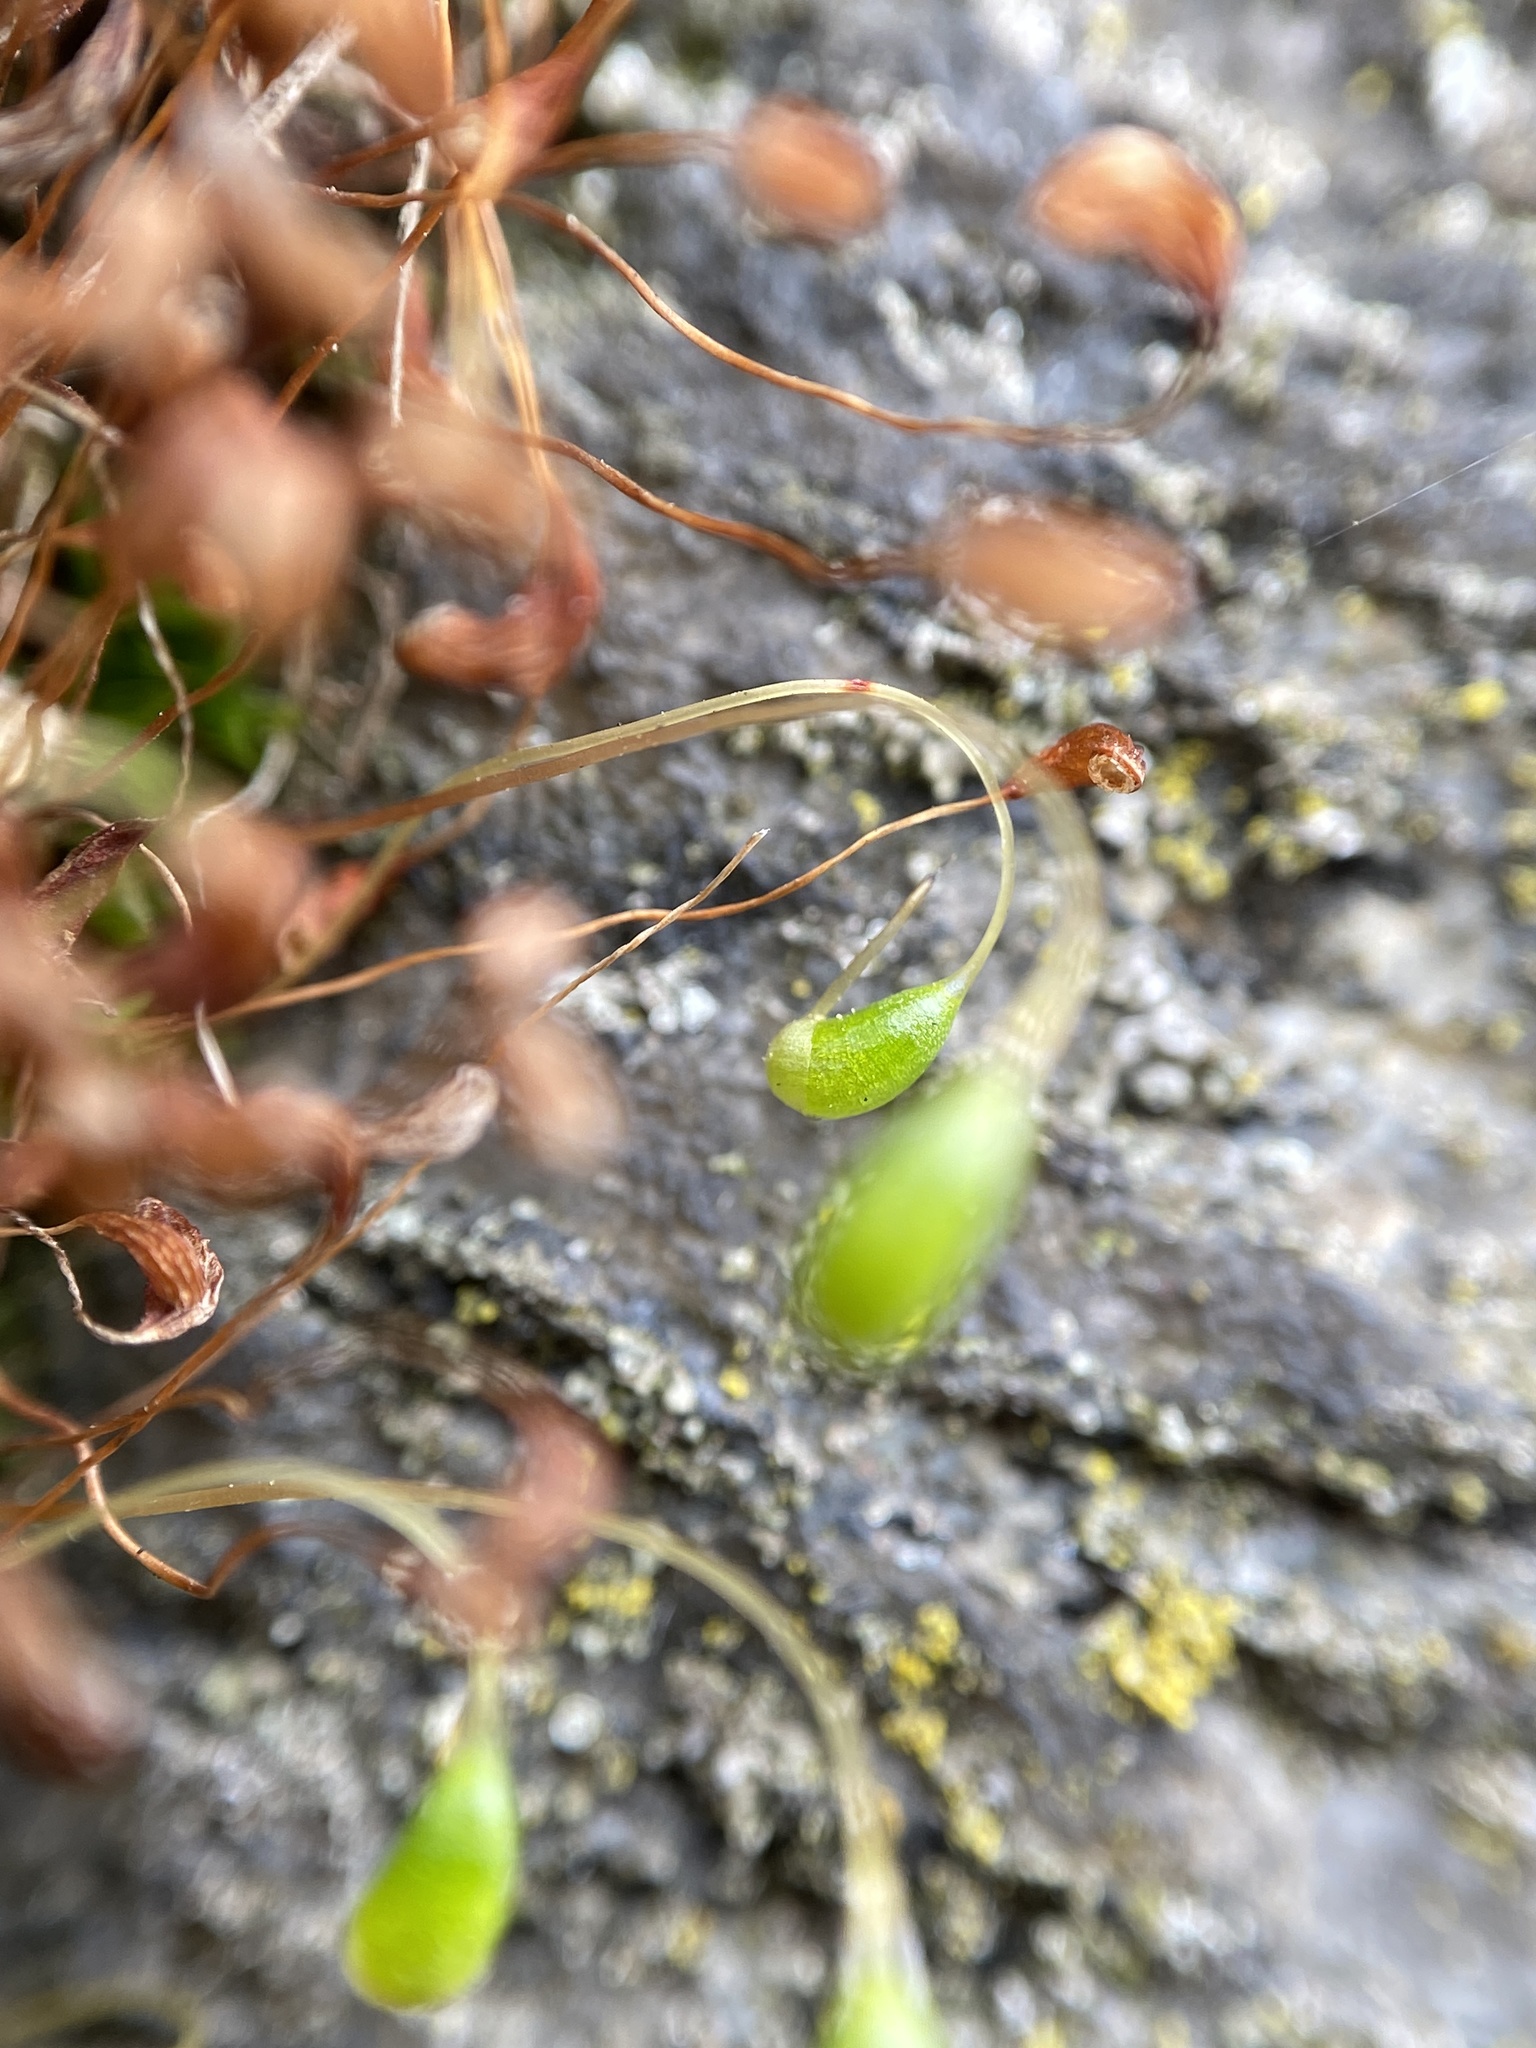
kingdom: Plantae
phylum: Bryophyta
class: Bryopsida
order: Funariales
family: Funariaceae
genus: Funaria
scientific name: Funaria hygrometrica
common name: Common cord moss
